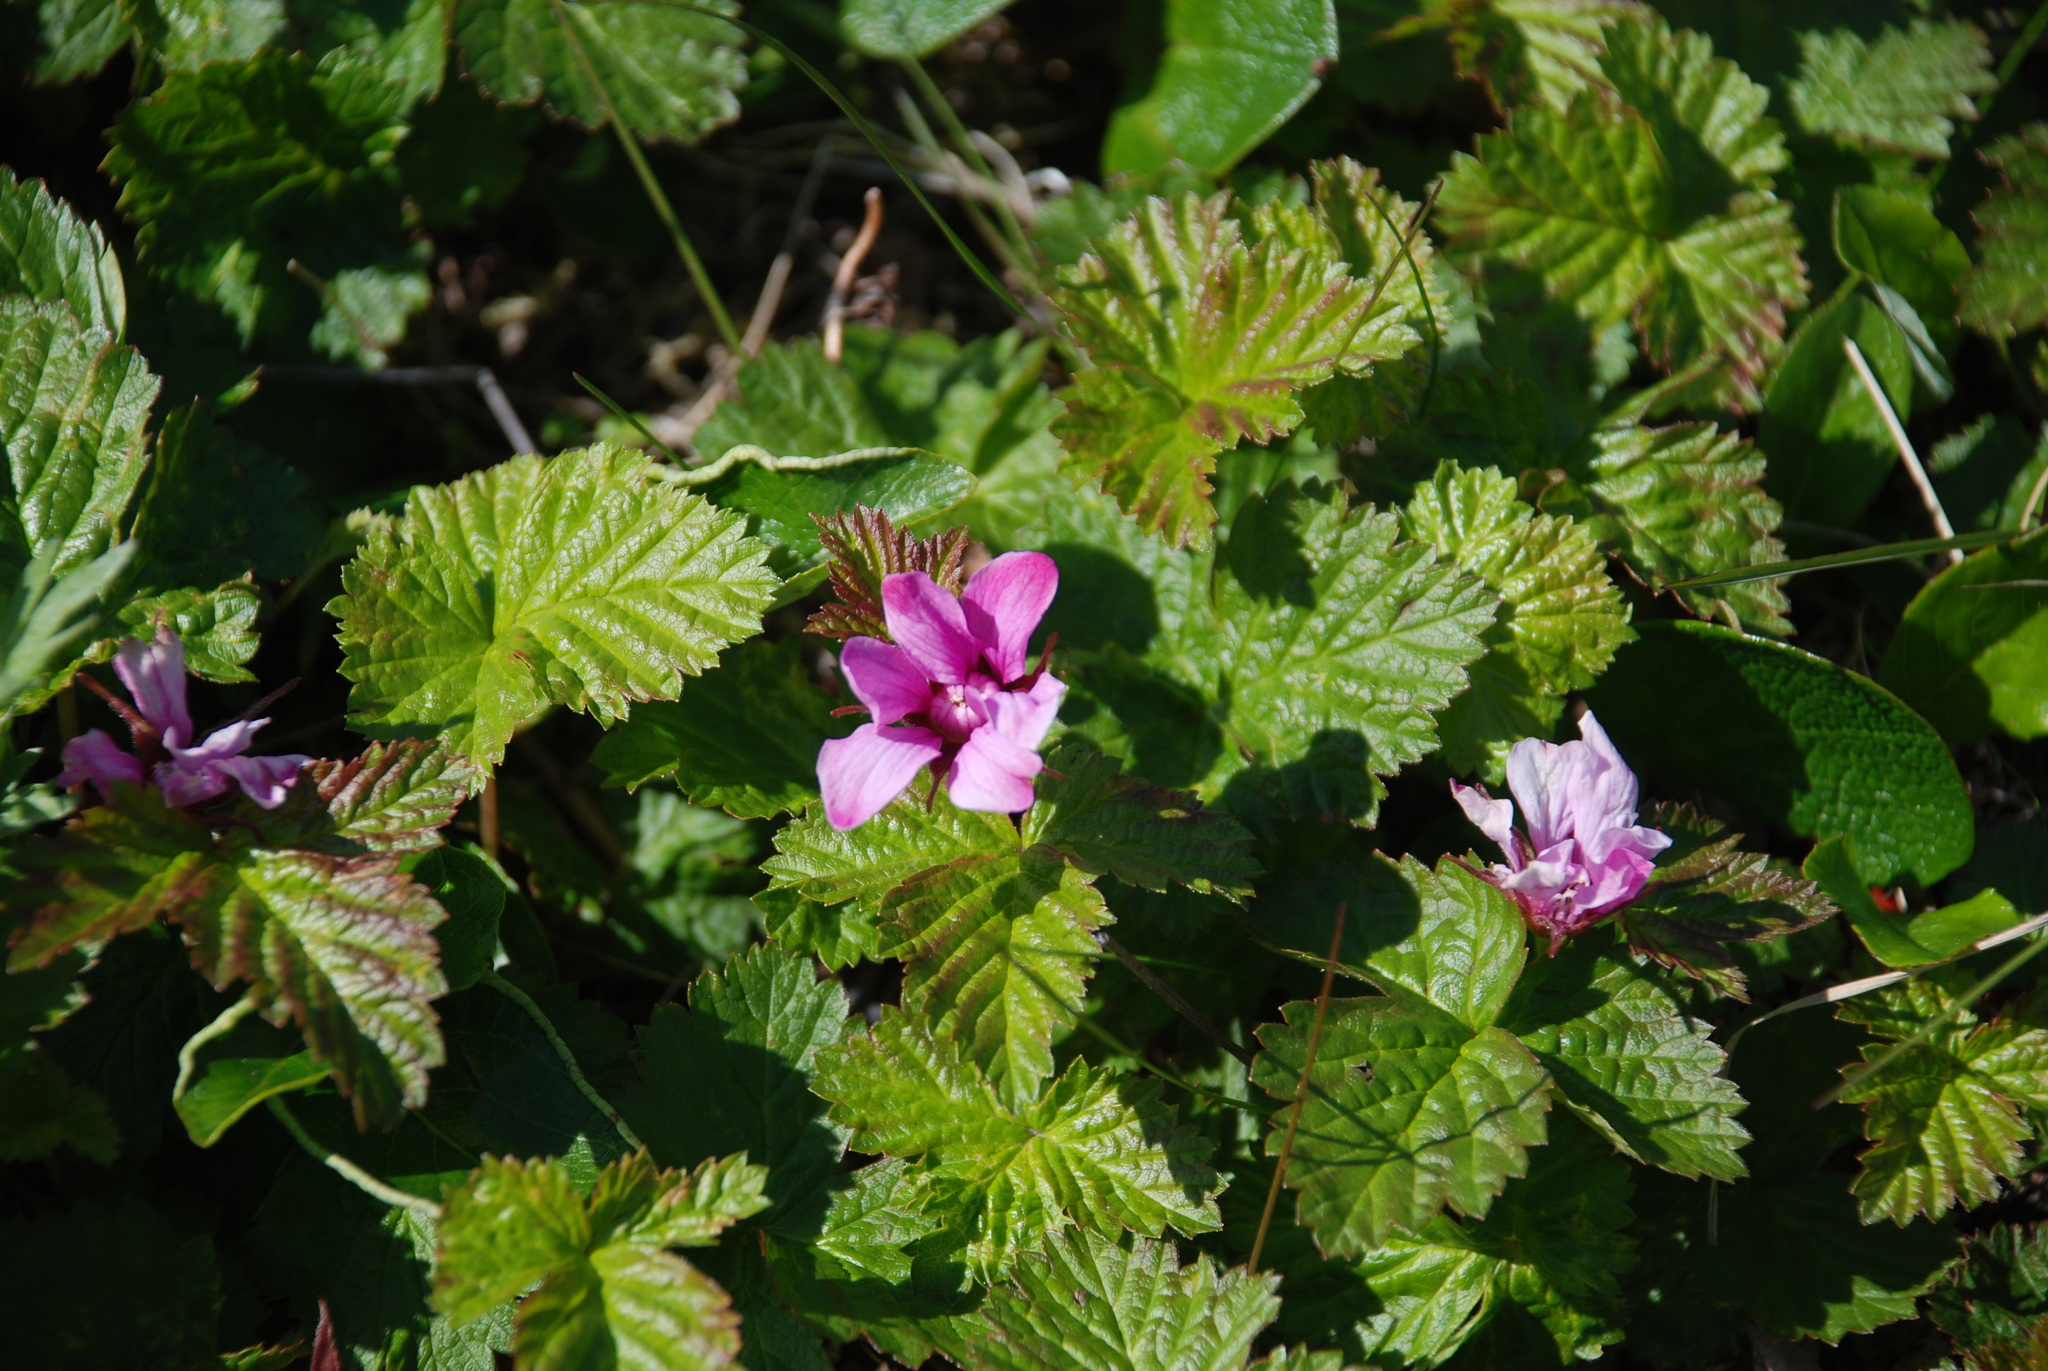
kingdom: Plantae
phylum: Tracheophyta
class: Magnoliopsida
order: Rosales
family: Rosaceae
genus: Rubus
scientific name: Rubus arcticus
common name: Arctic bramble
